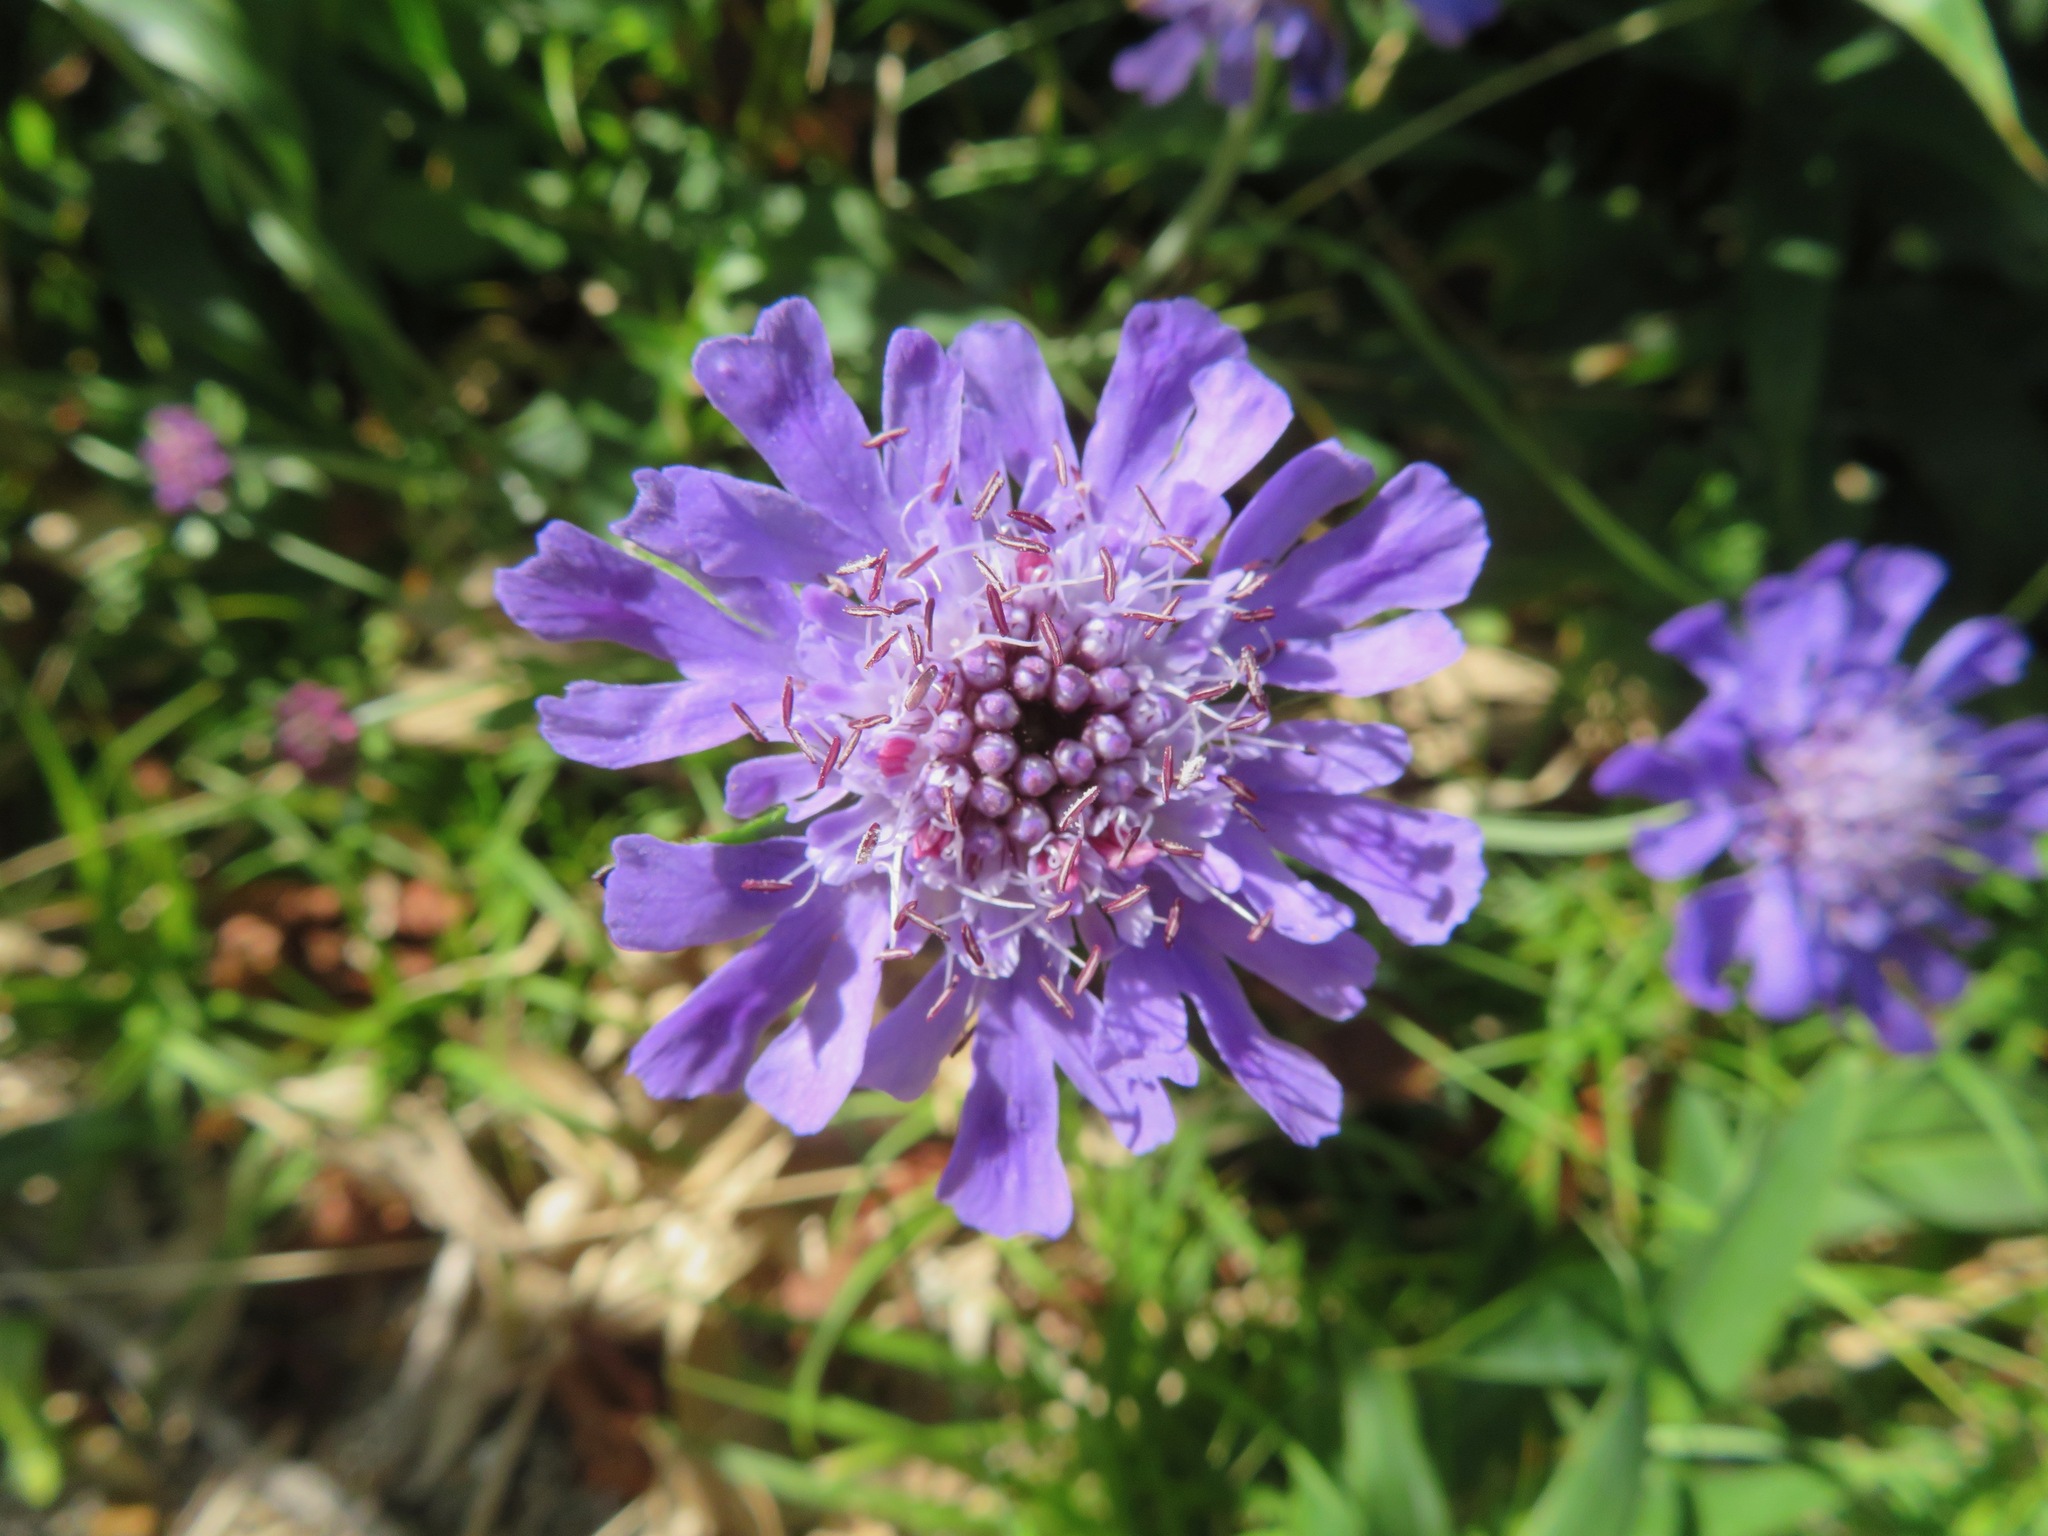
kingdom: Plantae
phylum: Tracheophyta
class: Magnoliopsida
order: Dipsacales
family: Caprifoliaceae
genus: Scabiosa
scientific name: Scabiosa japonica
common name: Pincushion-flower
